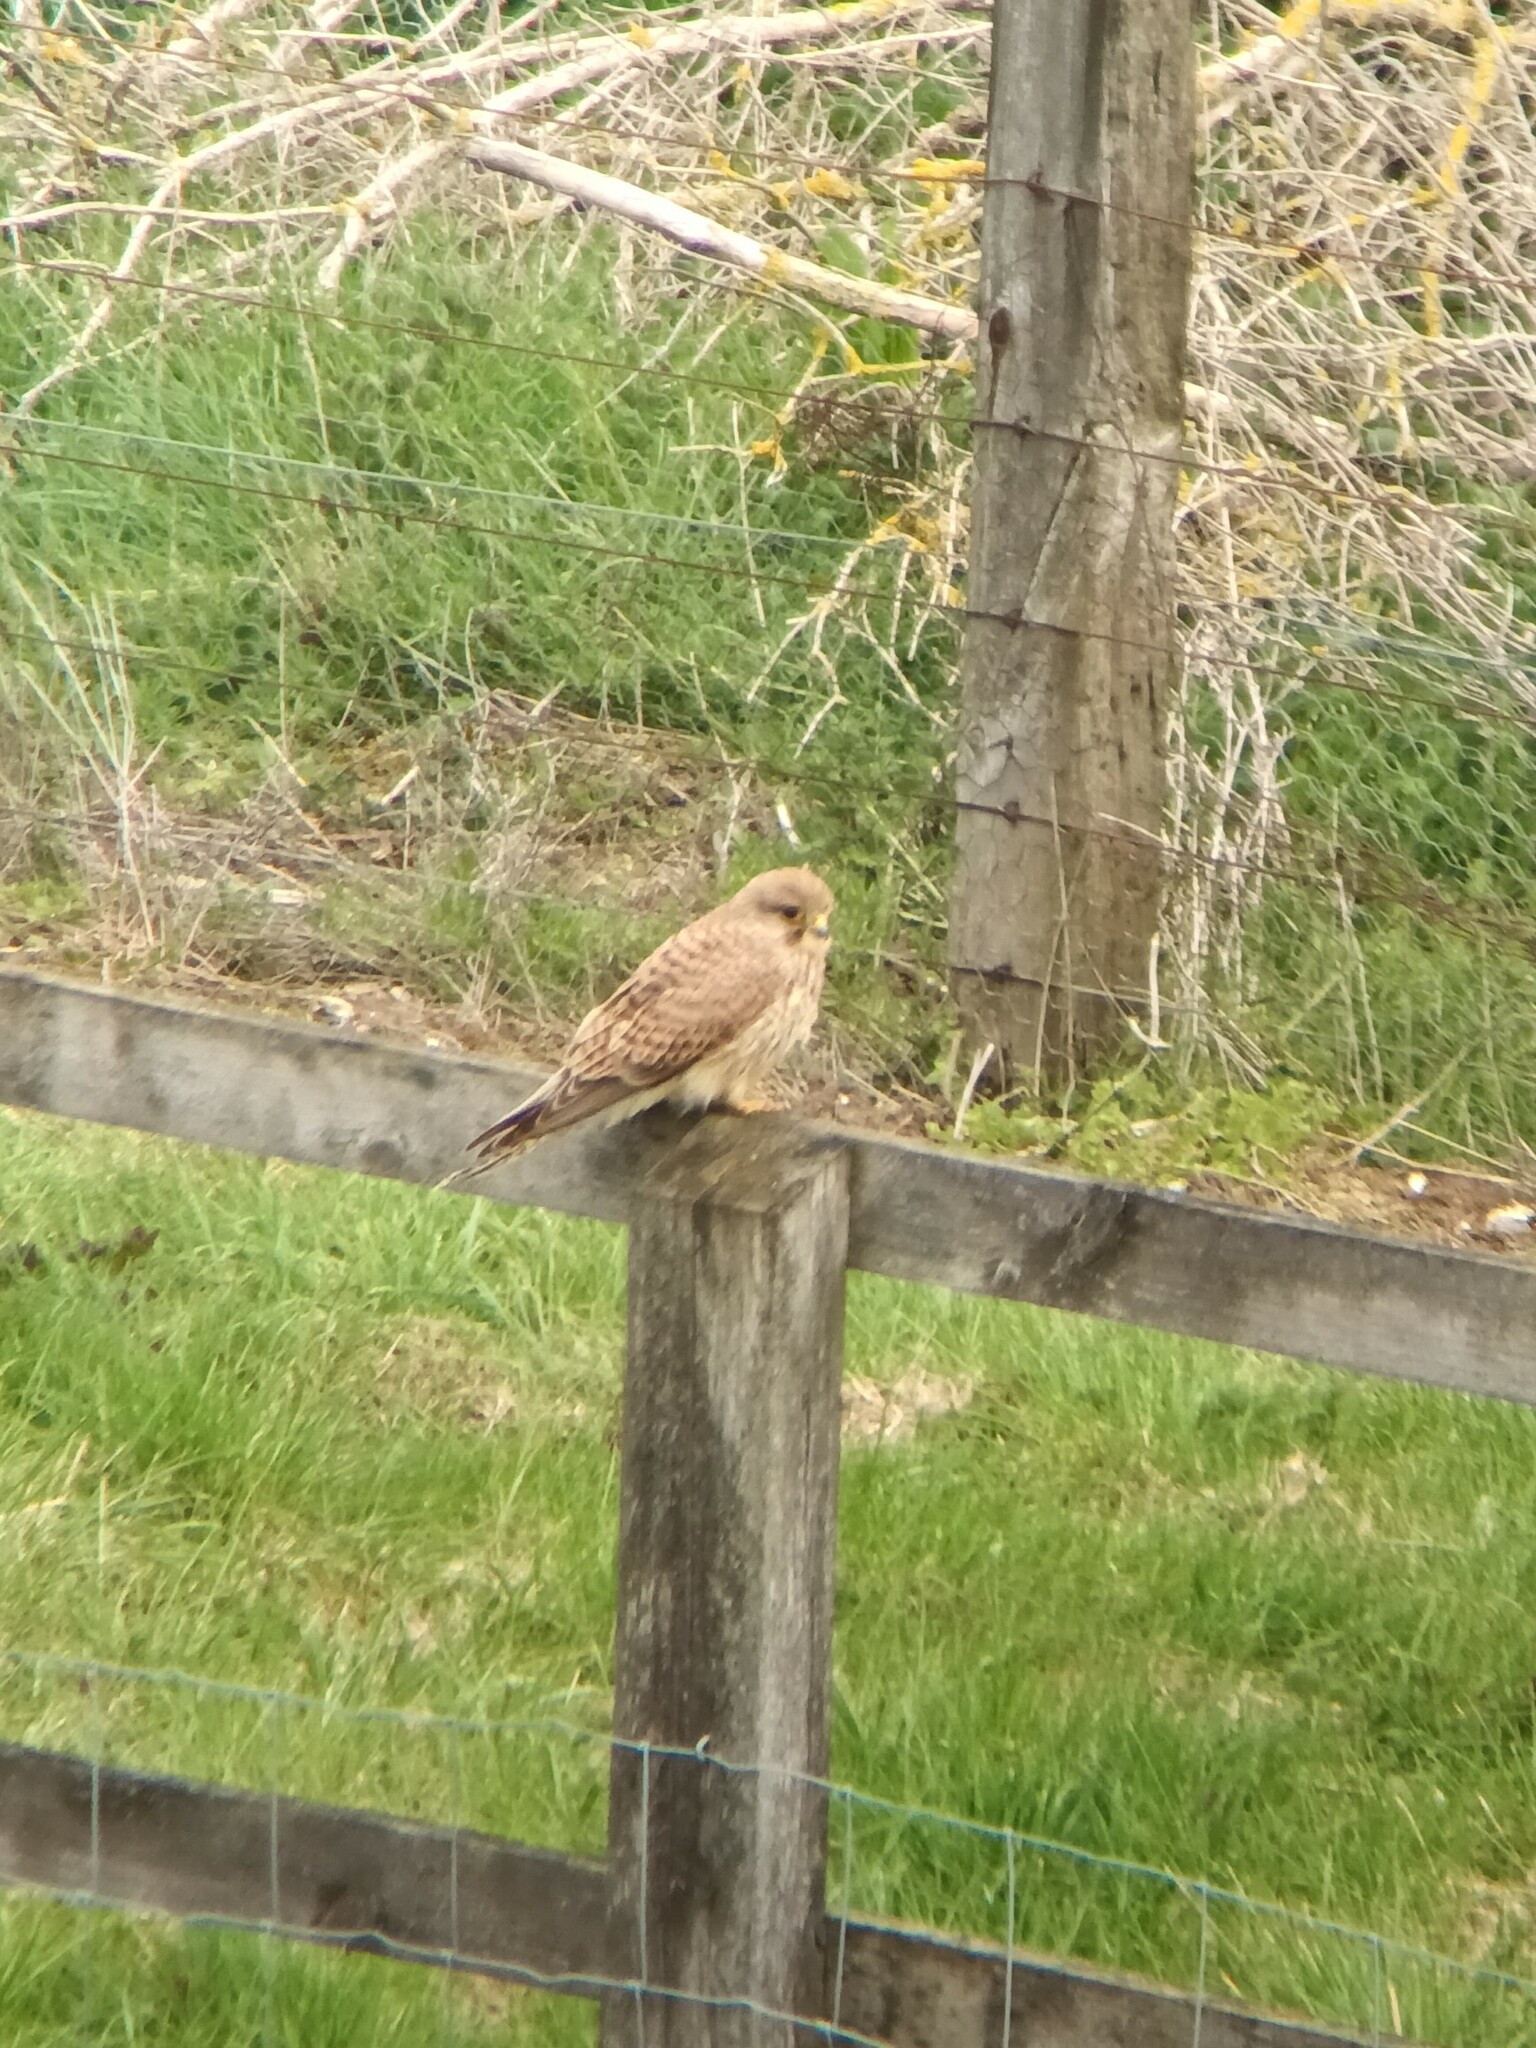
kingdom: Animalia
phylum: Chordata
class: Aves
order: Falconiformes
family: Falconidae
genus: Falco
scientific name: Falco tinnunculus
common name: Common kestrel
